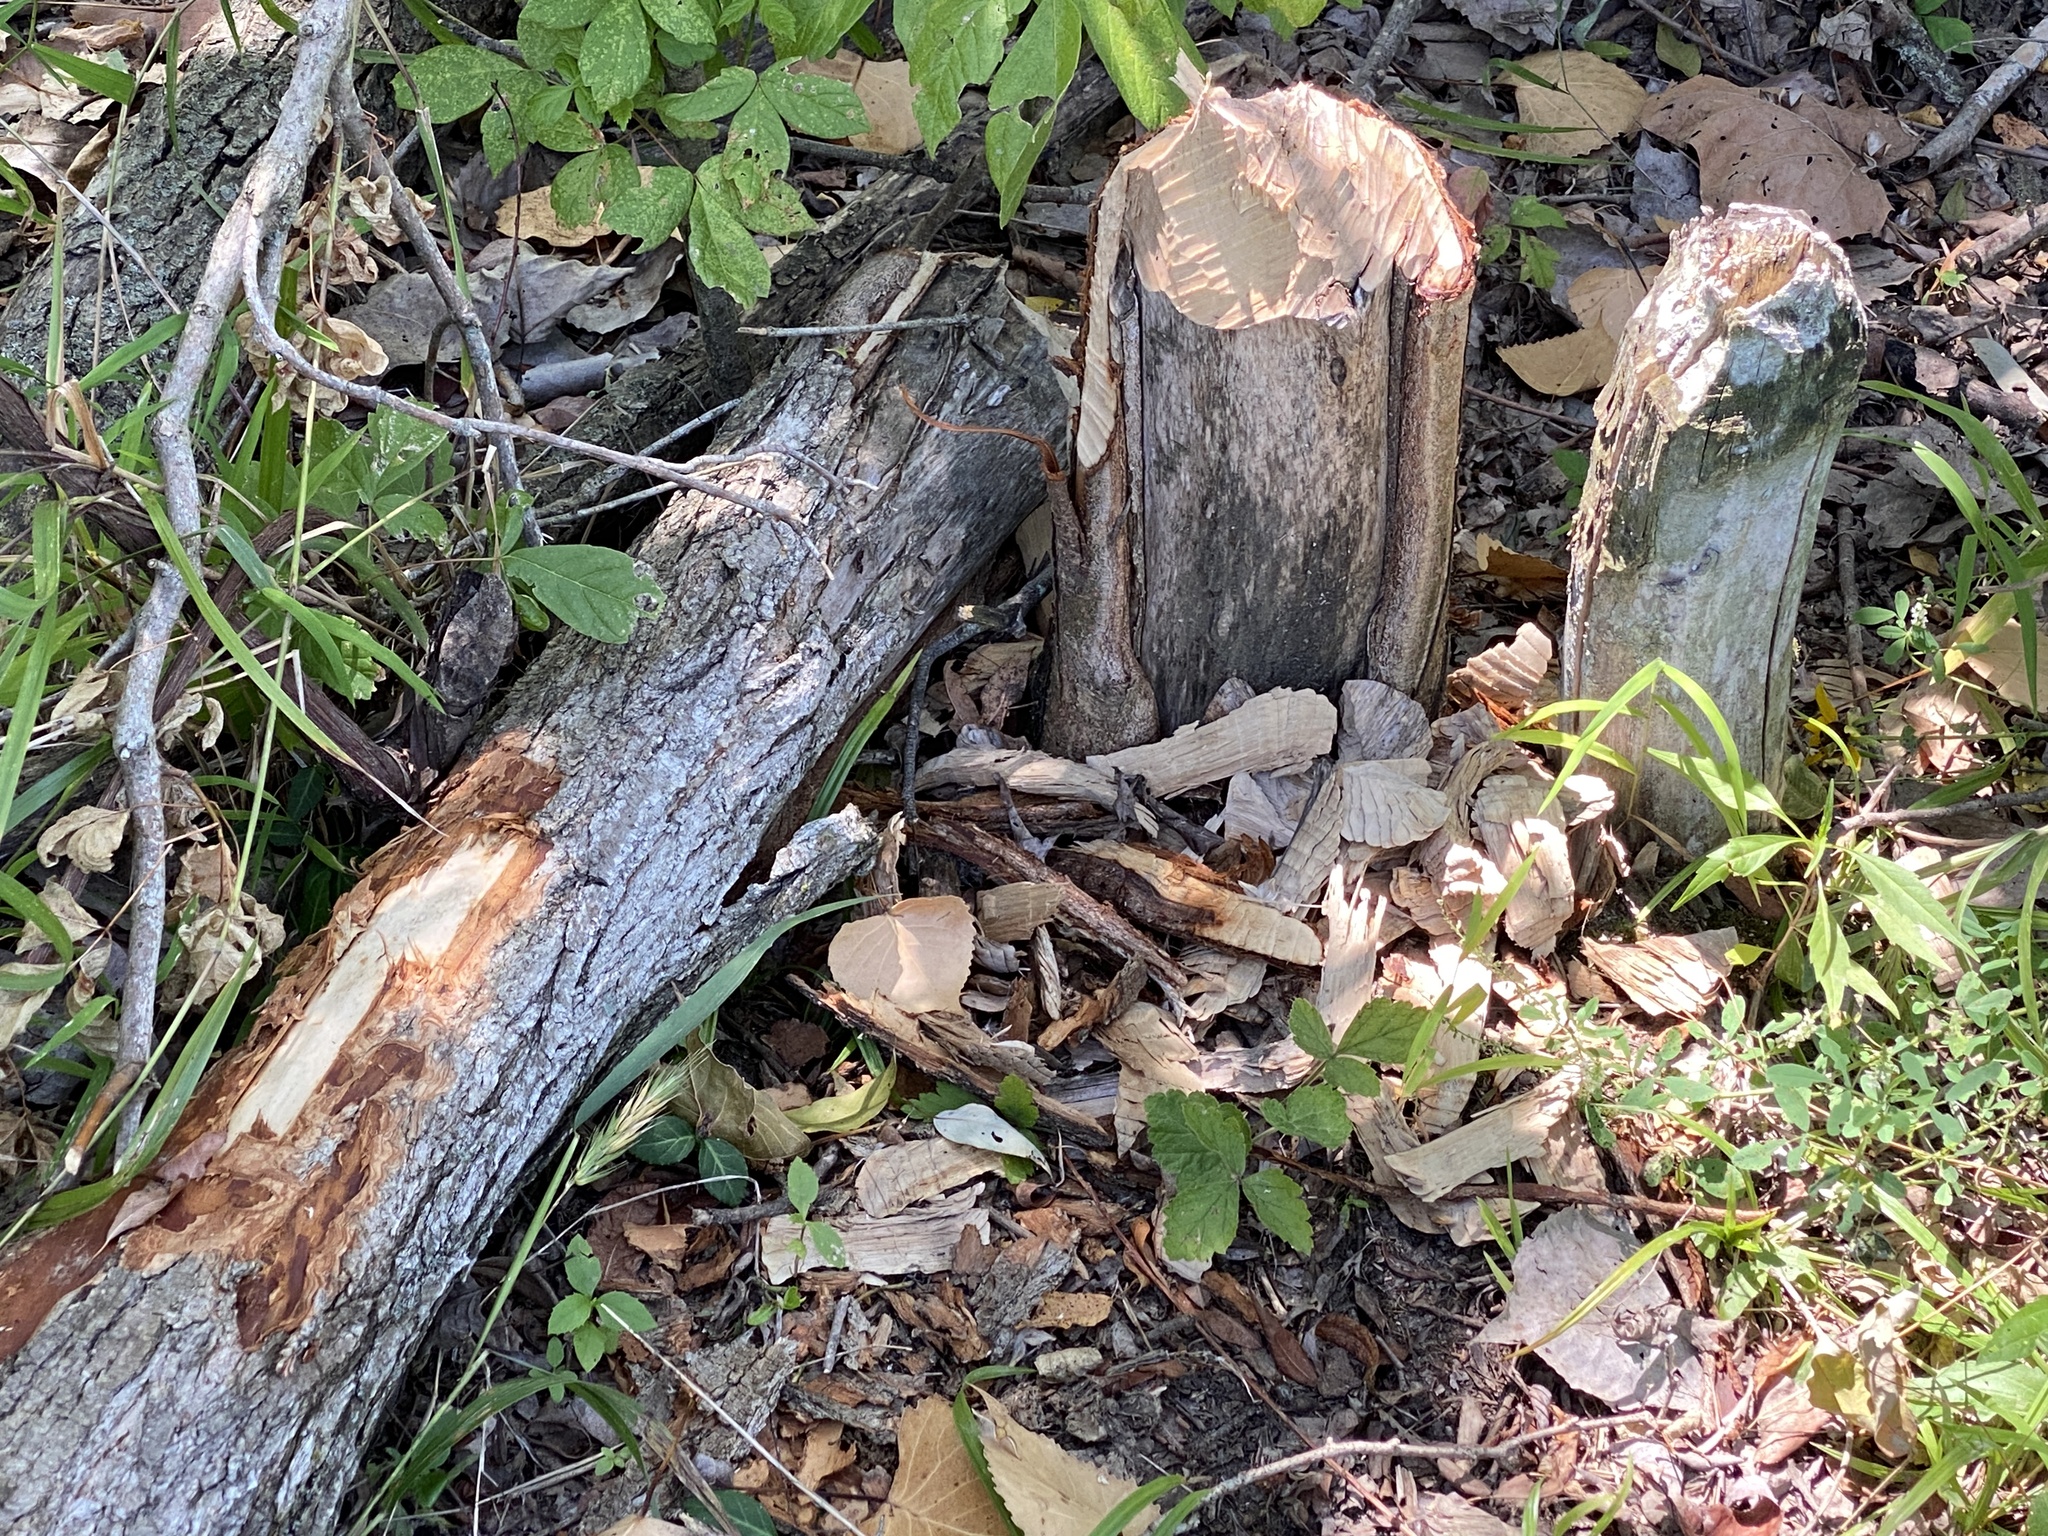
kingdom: Animalia
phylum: Chordata
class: Mammalia
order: Rodentia
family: Castoridae
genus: Castor
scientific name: Castor canadensis
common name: American beaver
